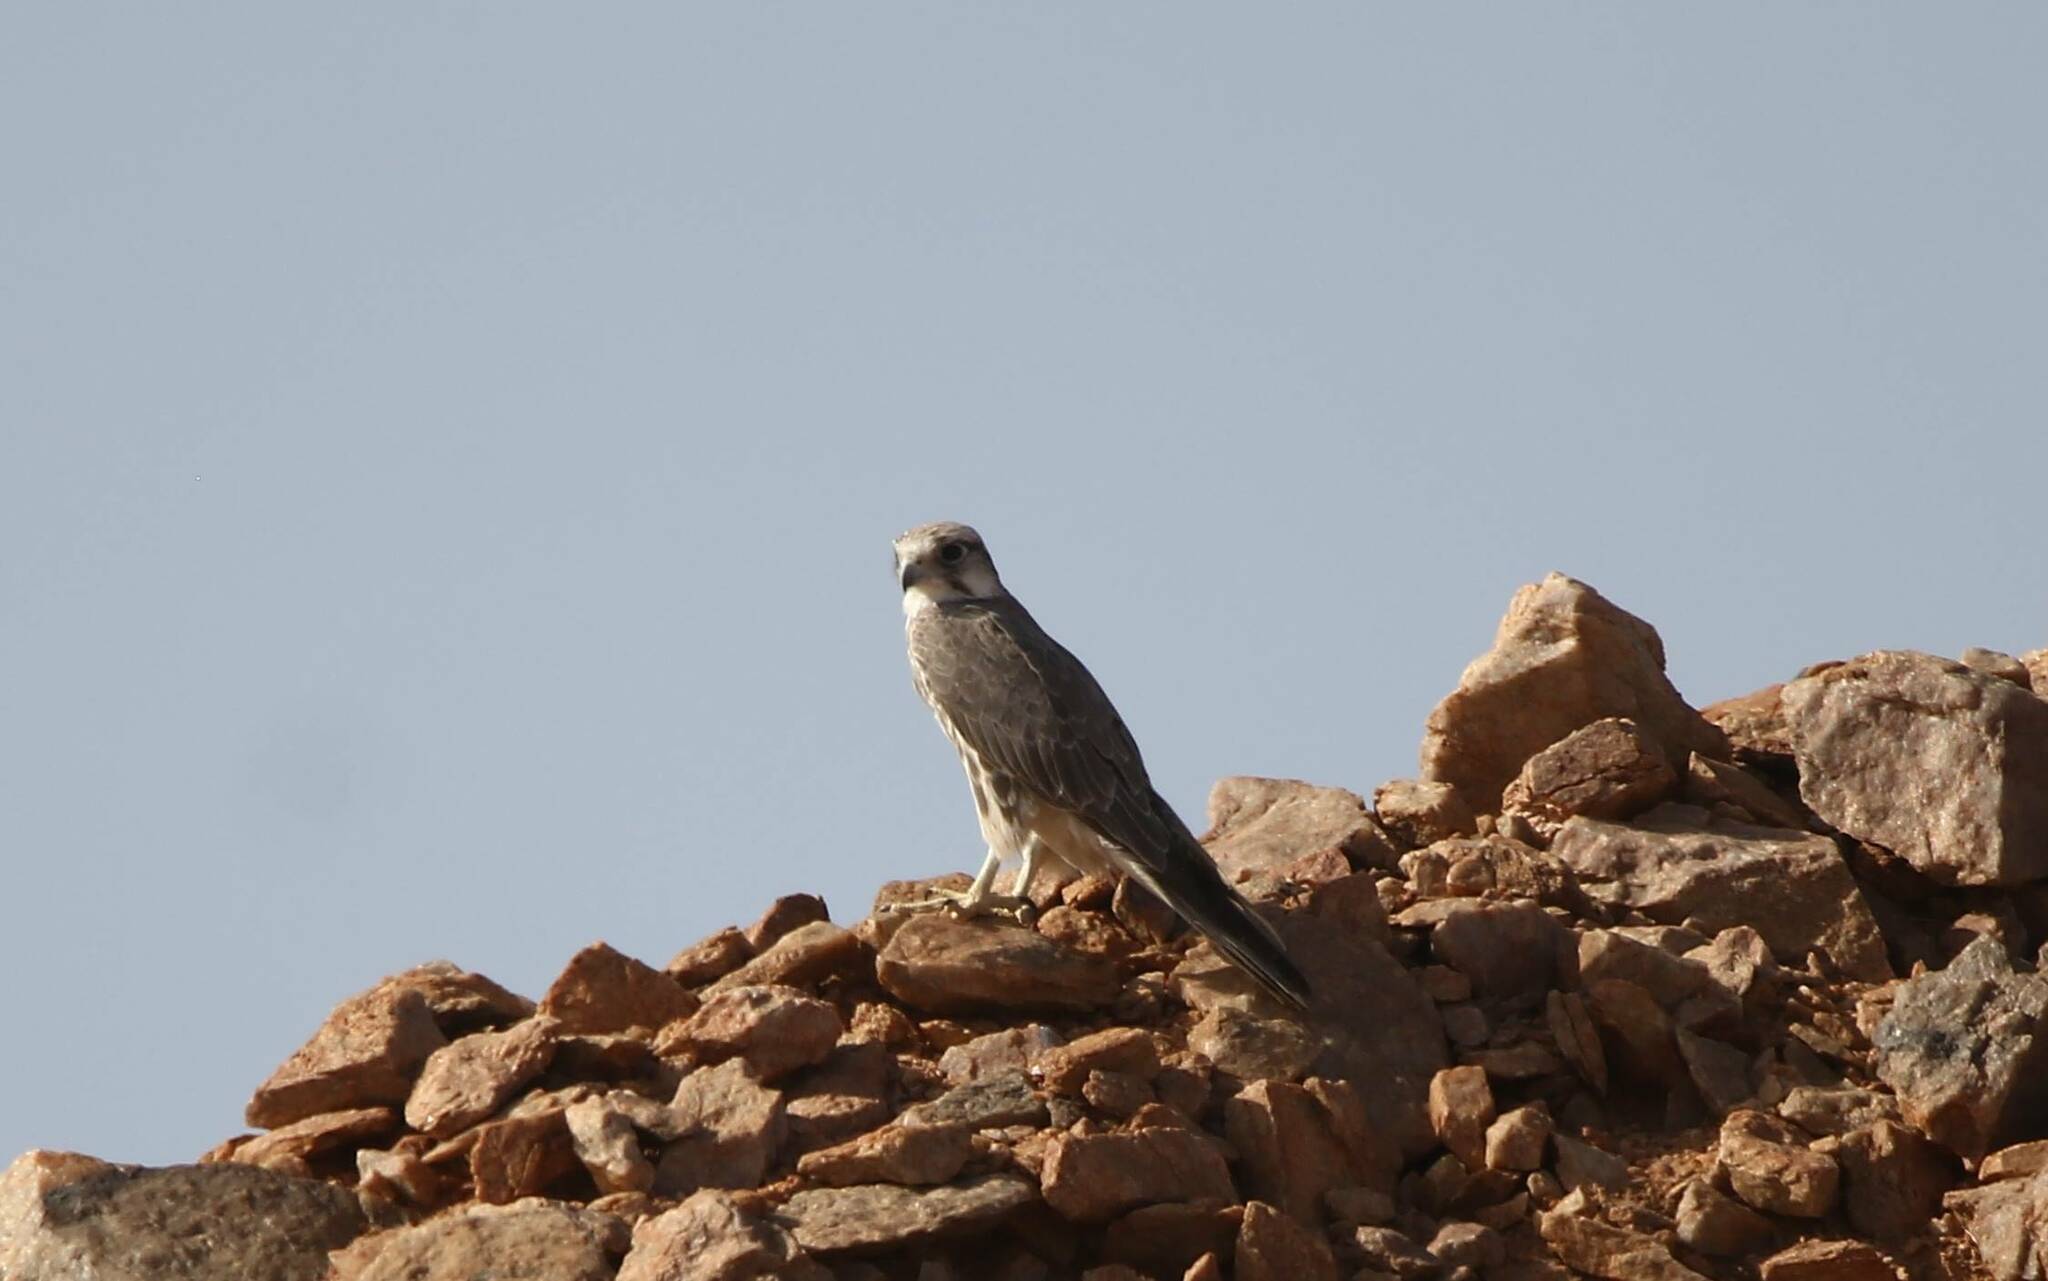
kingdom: Animalia
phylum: Chordata
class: Aves
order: Falconiformes
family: Falconidae
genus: Falco
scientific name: Falco biarmicus
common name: Lanner falcon
